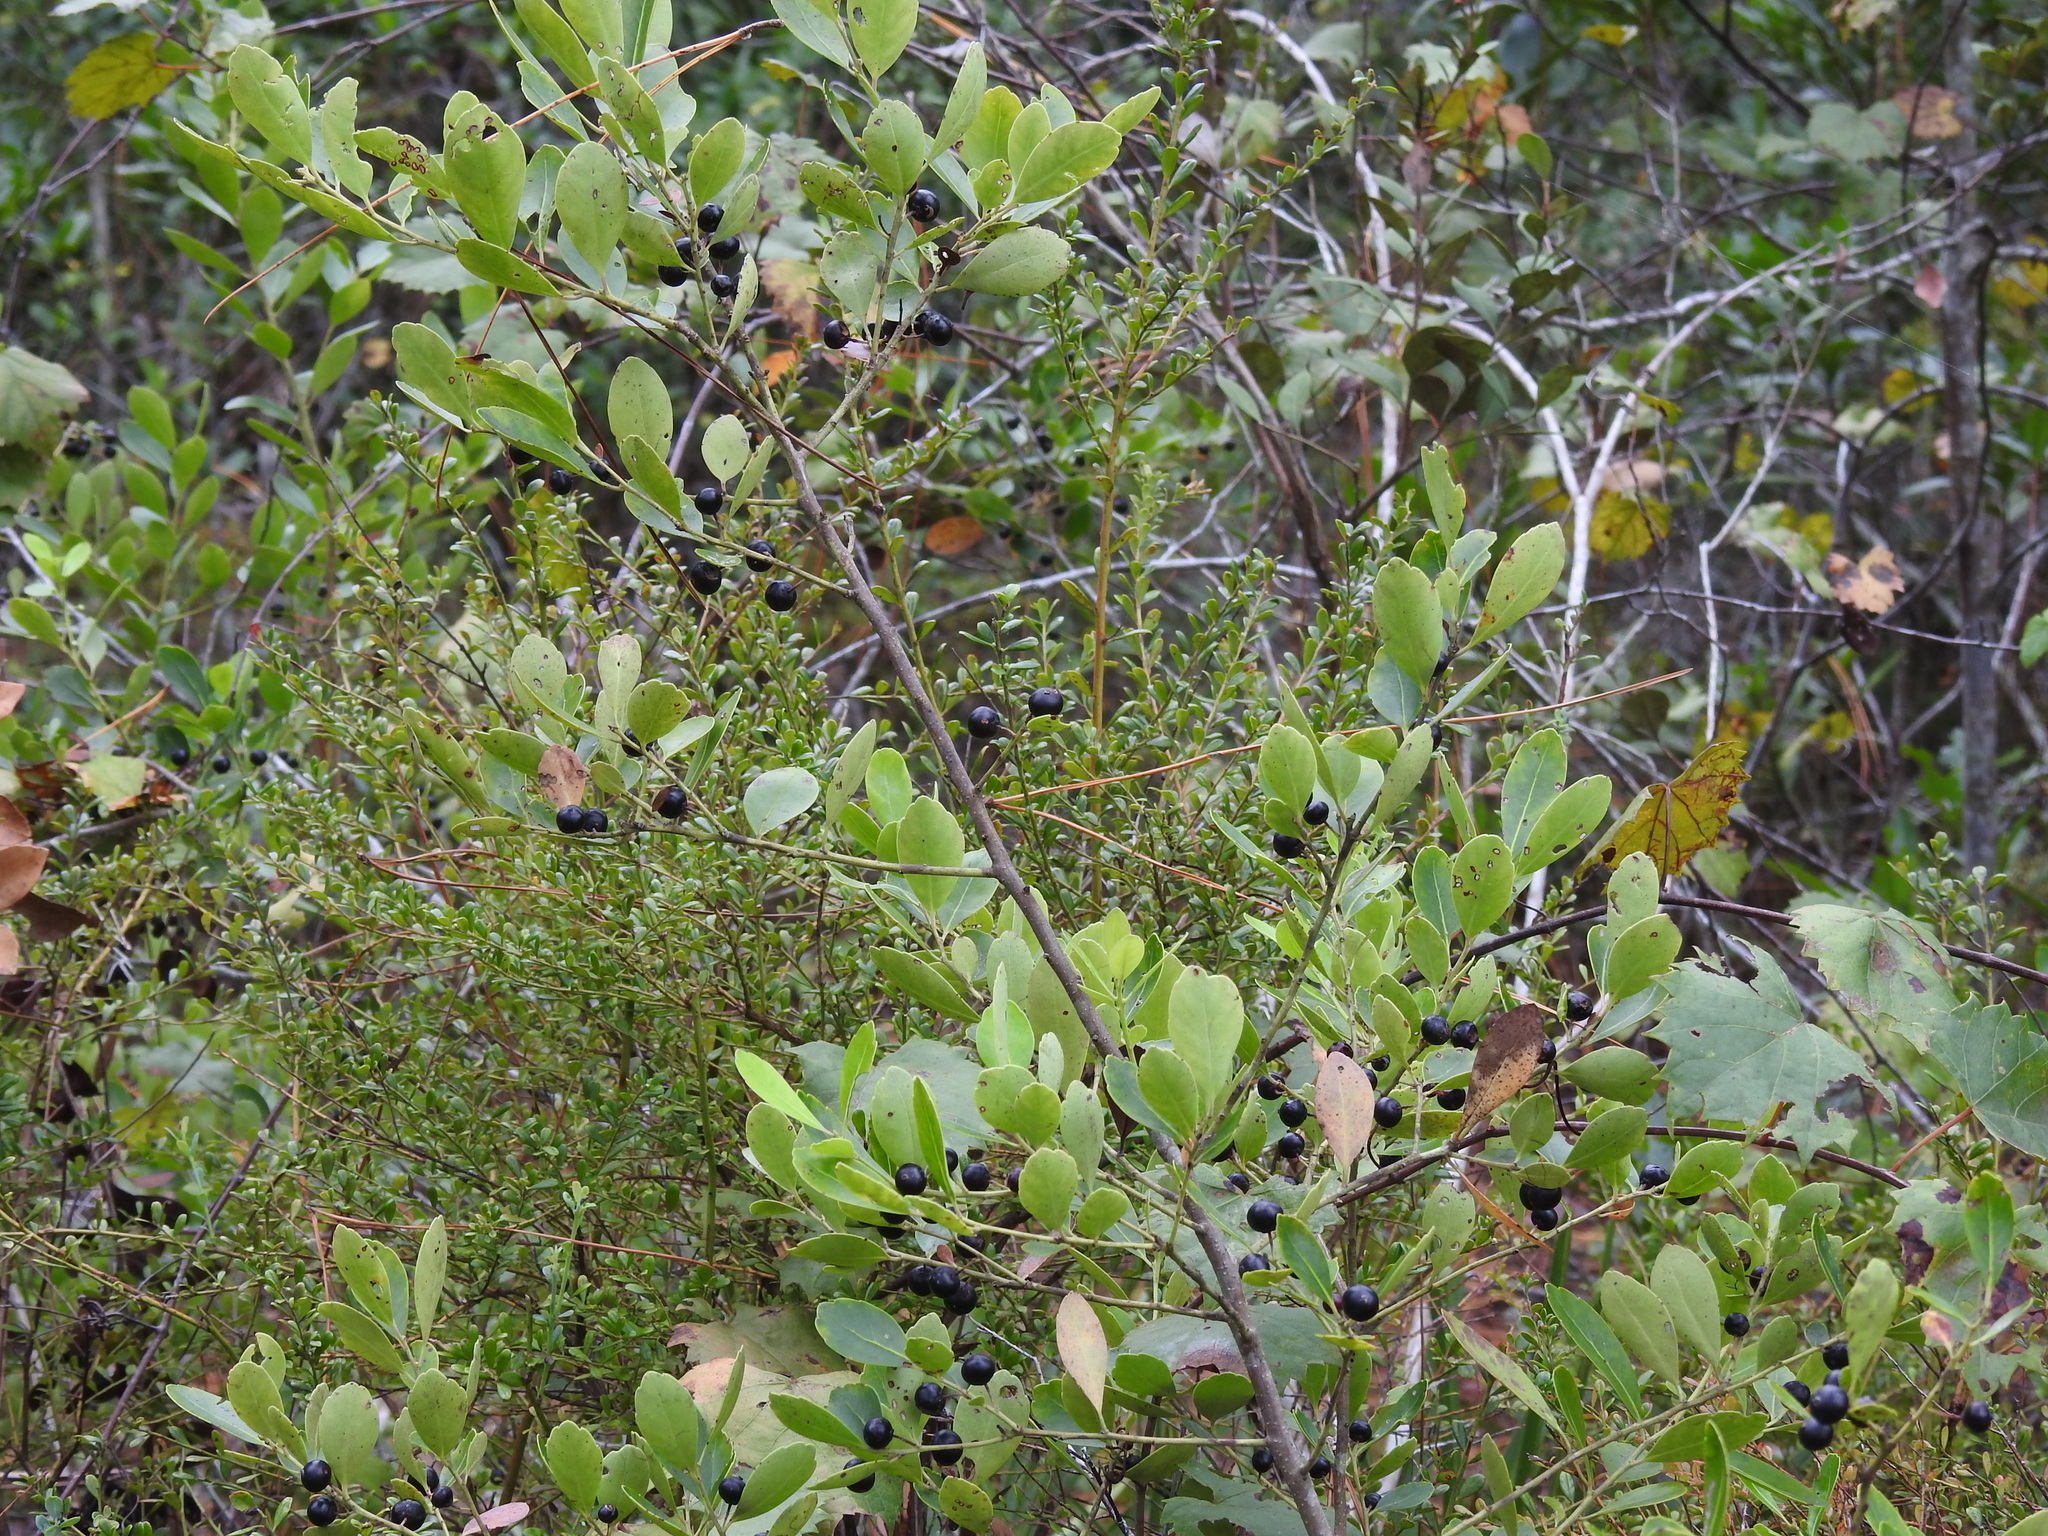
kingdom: Plantae
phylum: Tracheophyta
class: Magnoliopsida
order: Aquifoliales
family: Aquifoliaceae
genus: Ilex
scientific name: Ilex glabra
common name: Bitter gallberry
